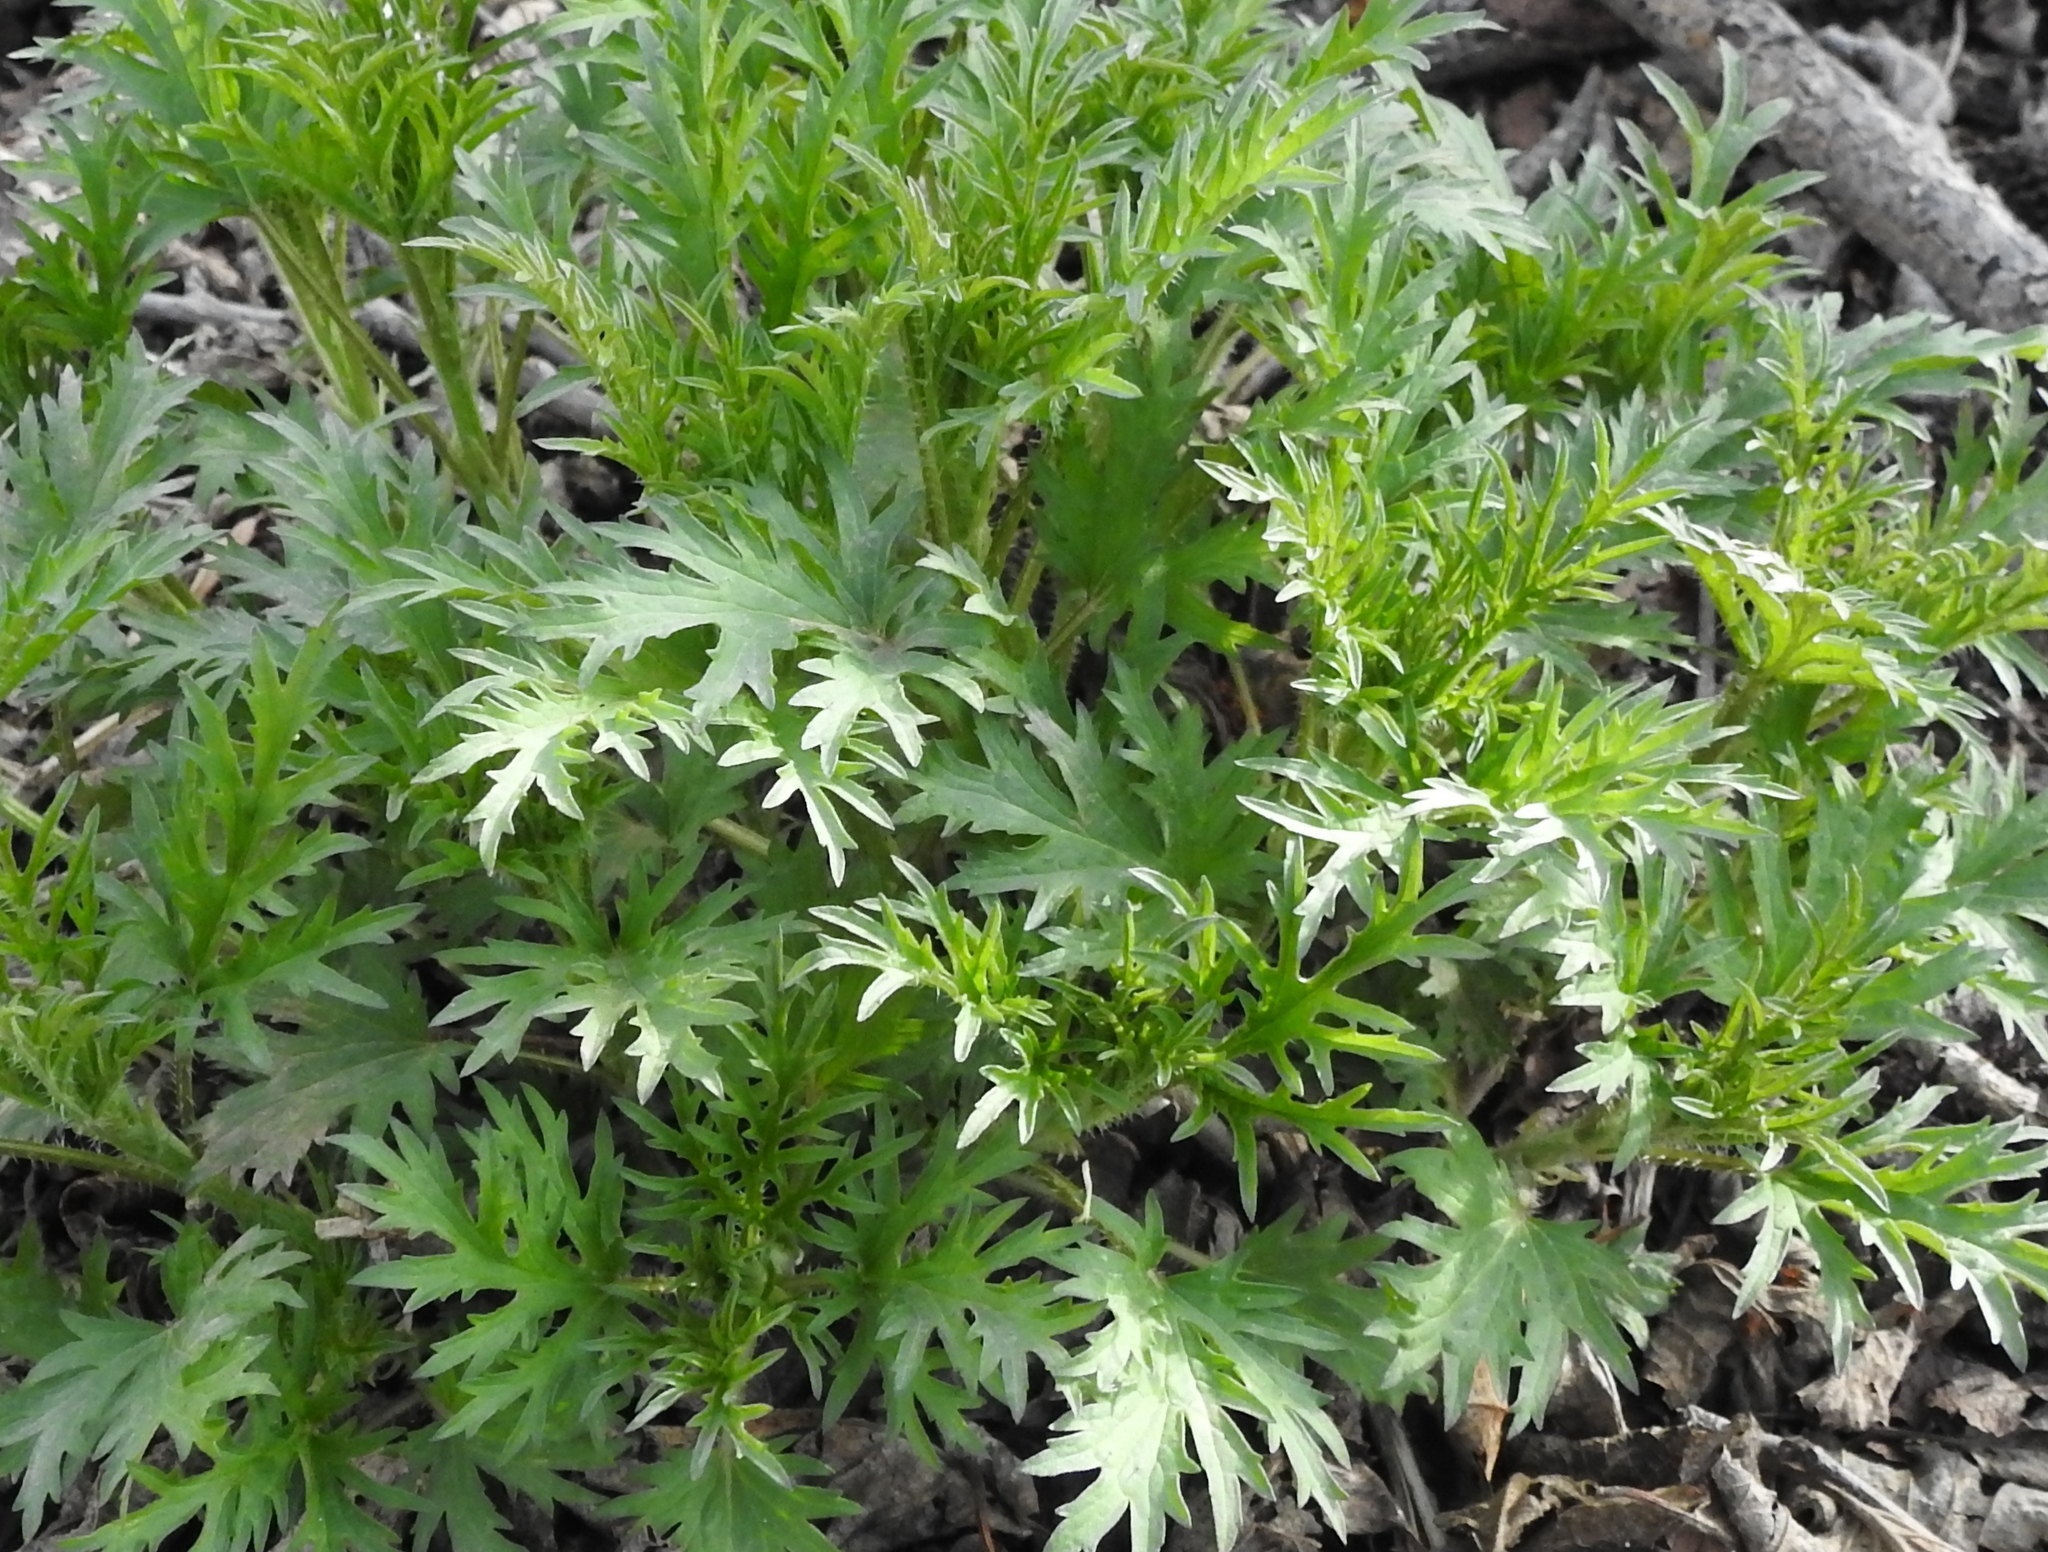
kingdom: Plantae
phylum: Tracheophyta
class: Magnoliopsida
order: Rosales
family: Urticaceae
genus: Urtica
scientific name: Urtica cannabina
